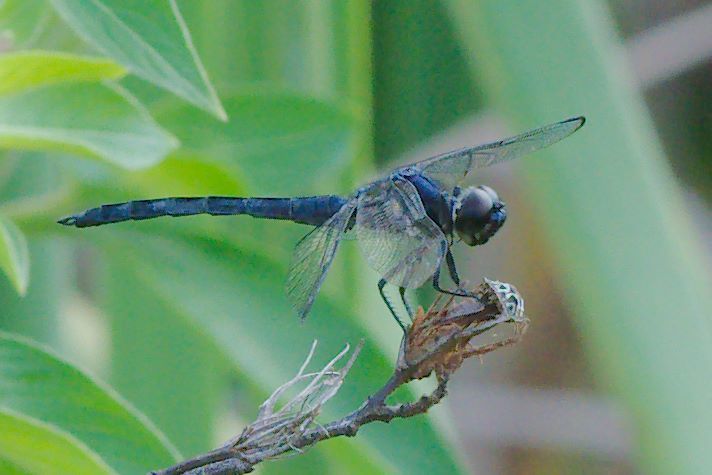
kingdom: Animalia
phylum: Arthropoda
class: Insecta
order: Odonata
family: Libellulidae
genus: Libellula
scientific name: Libellula incesta
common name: Slaty skimmer
